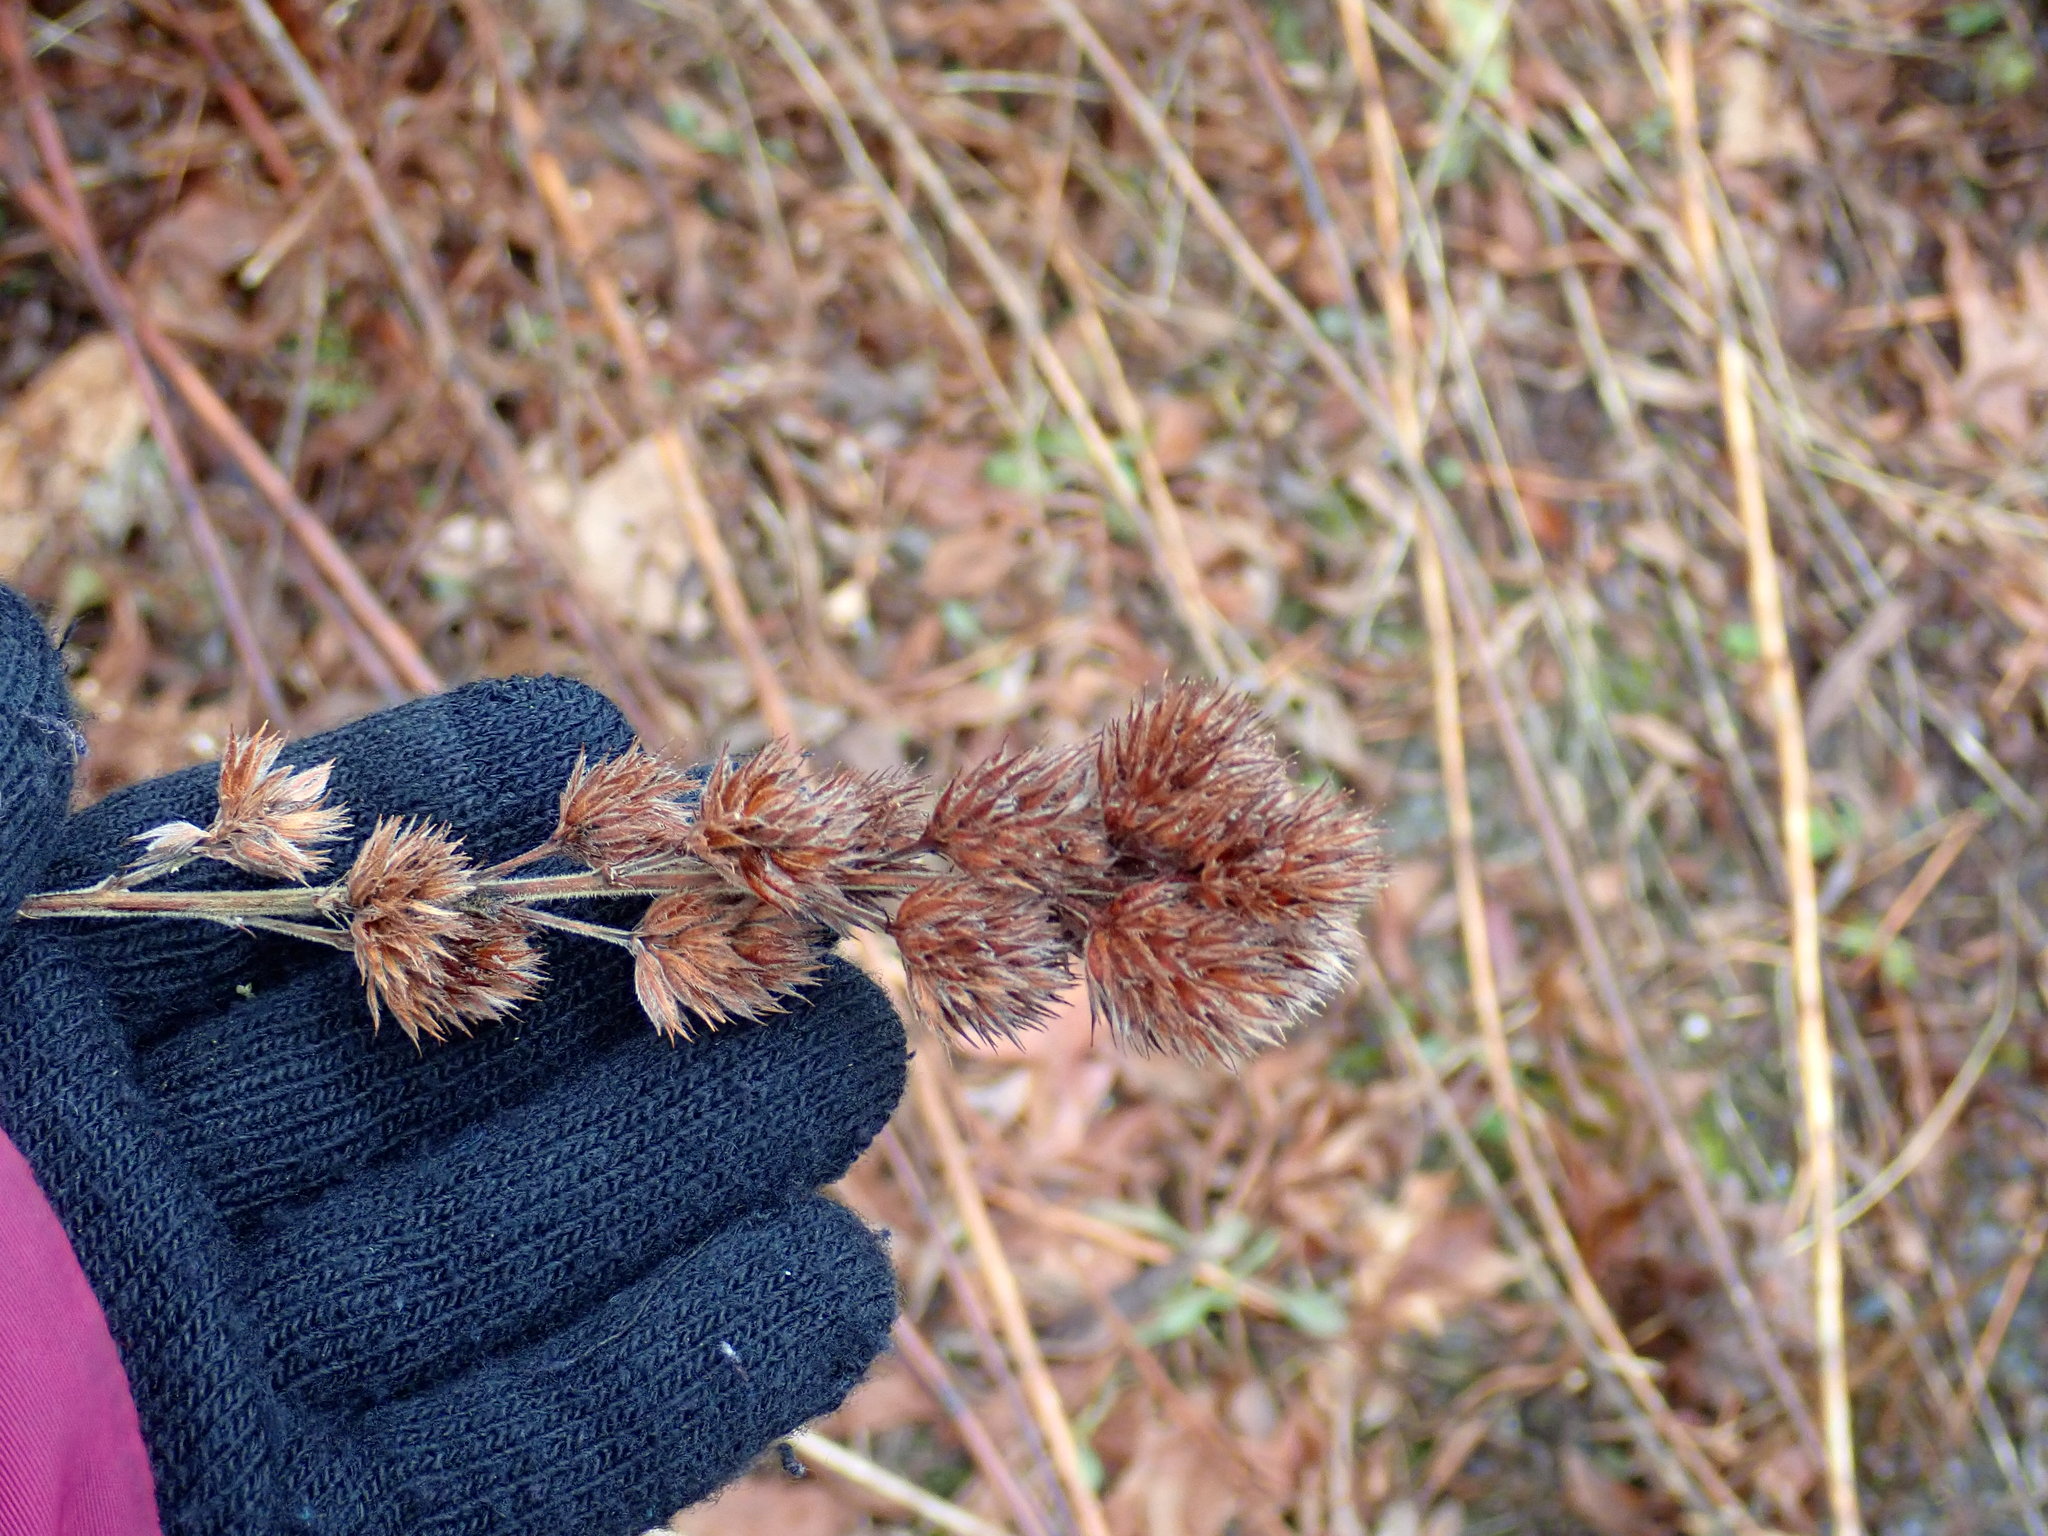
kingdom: Plantae
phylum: Tracheophyta
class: Magnoliopsida
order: Fabales
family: Fabaceae
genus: Lespedeza
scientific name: Lespedeza capitata
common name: Dusty clover
